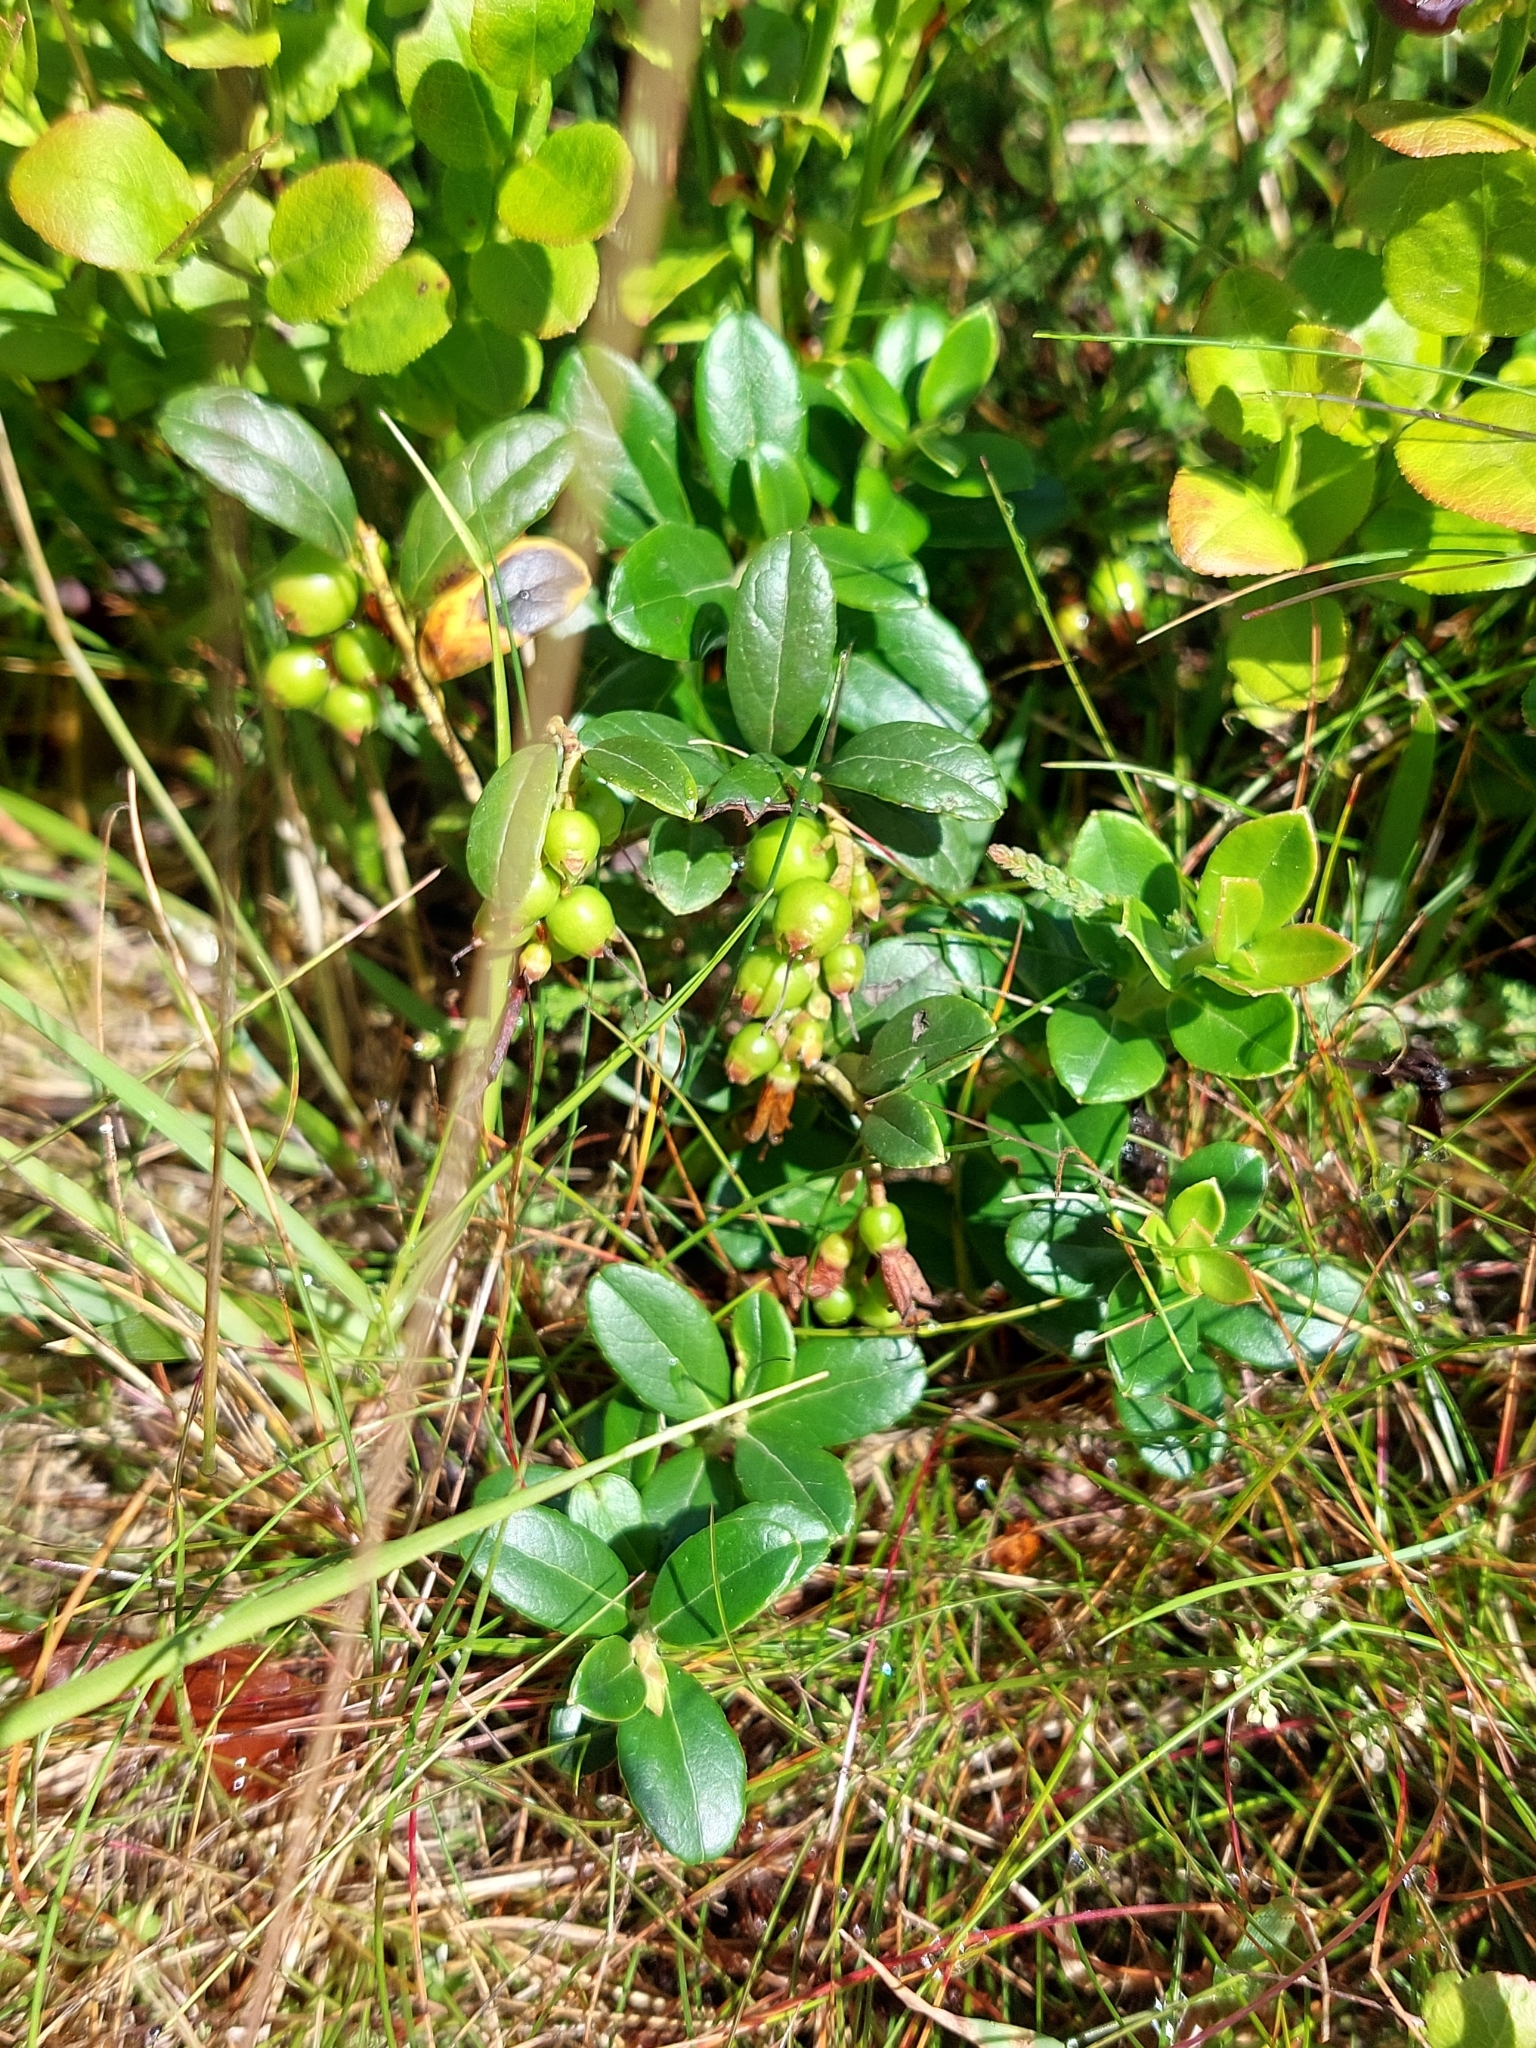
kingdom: Plantae
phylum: Tracheophyta
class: Magnoliopsida
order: Ericales
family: Ericaceae
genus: Vaccinium
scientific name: Vaccinium vitis-idaea
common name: Cowberry
